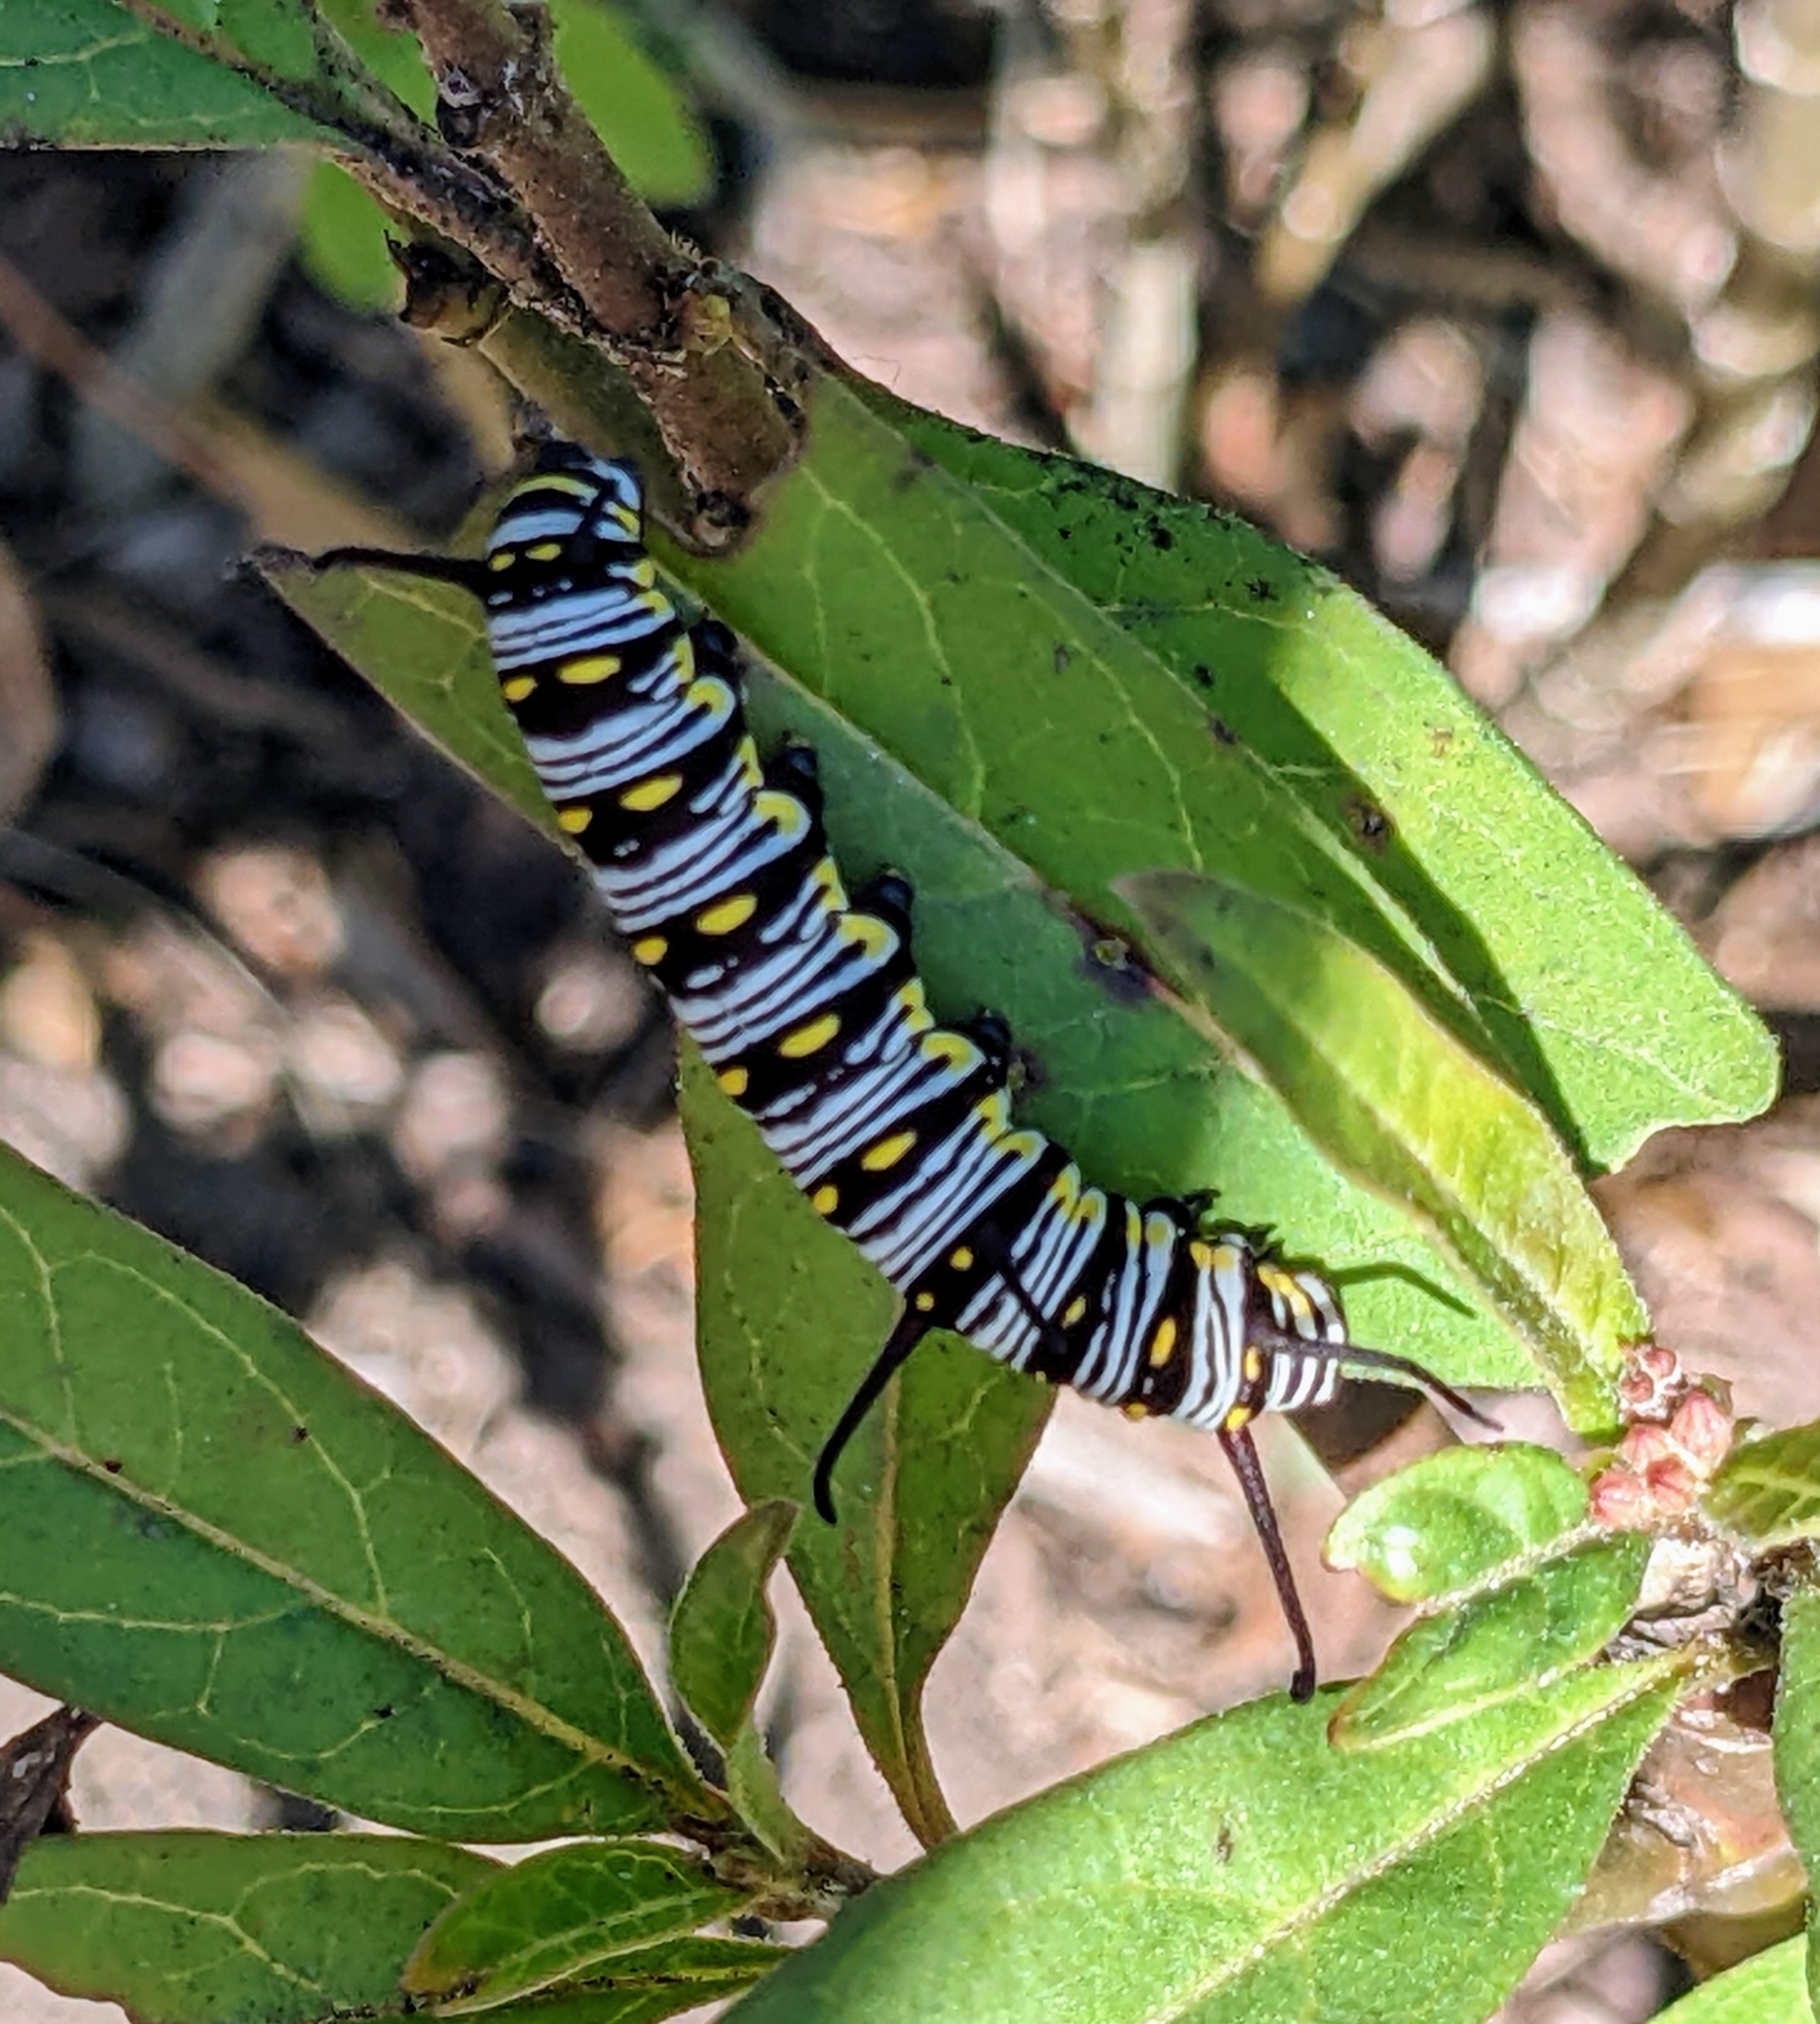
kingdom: Animalia
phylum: Arthropoda
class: Insecta
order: Lepidoptera
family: Nymphalidae
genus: Danaus
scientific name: Danaus gilippus
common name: Queen
